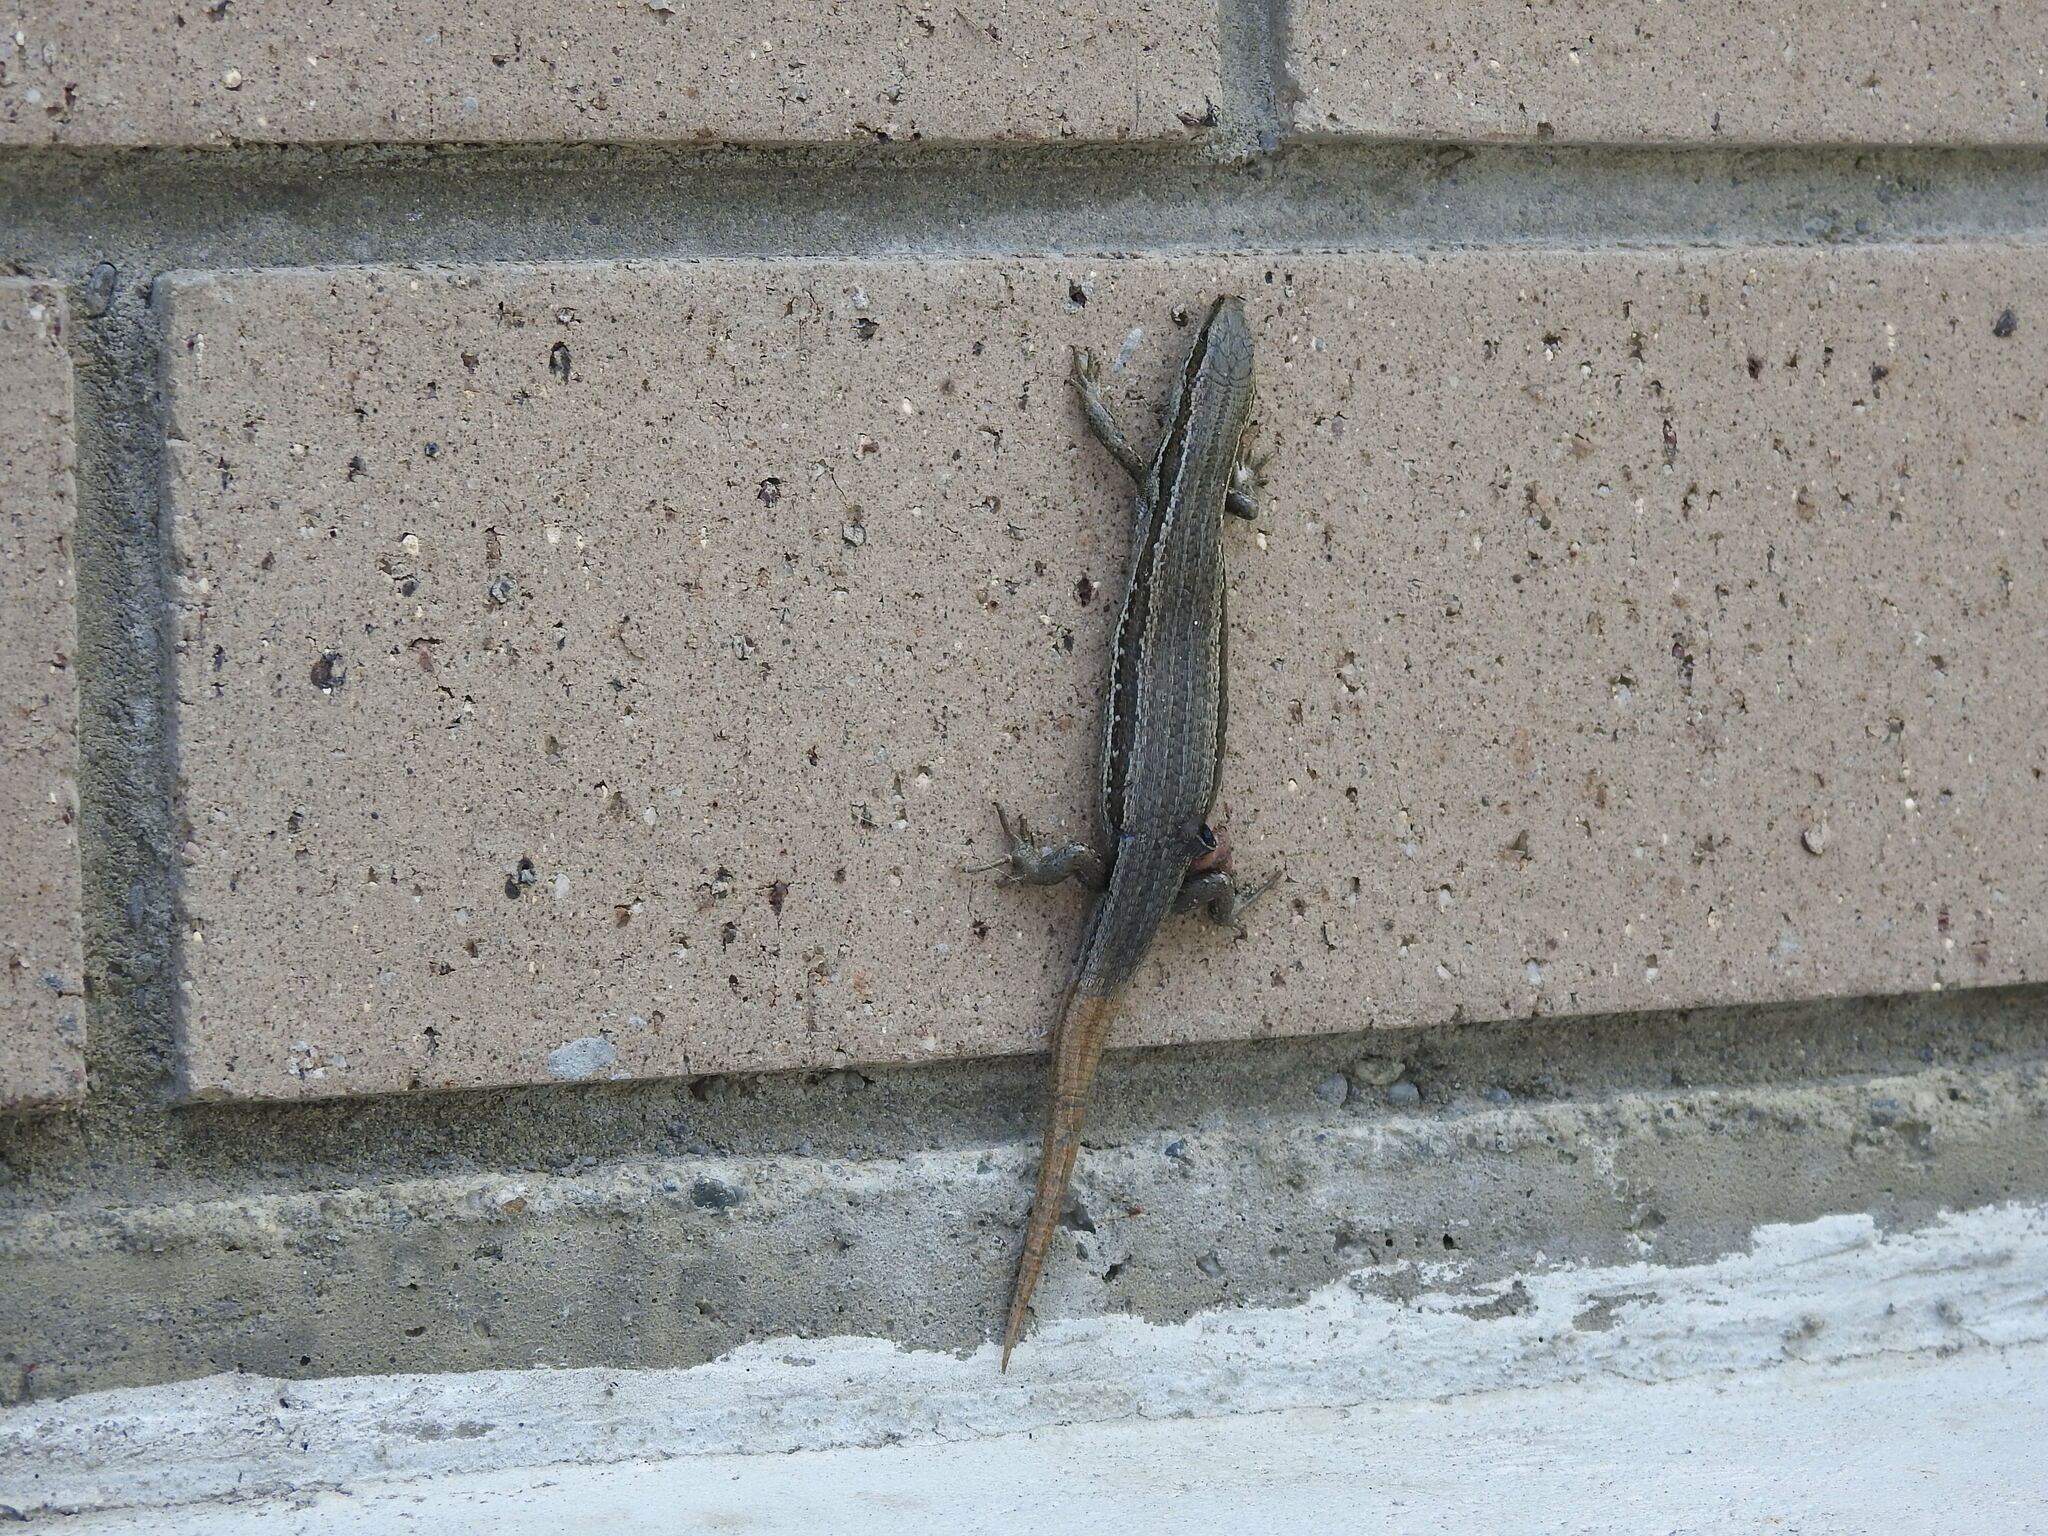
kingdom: Animalia
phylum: Chordata
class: Squamata
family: Scincidae
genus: Oligosoma
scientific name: Oligosoma polychroma
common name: Common new zealand skink
